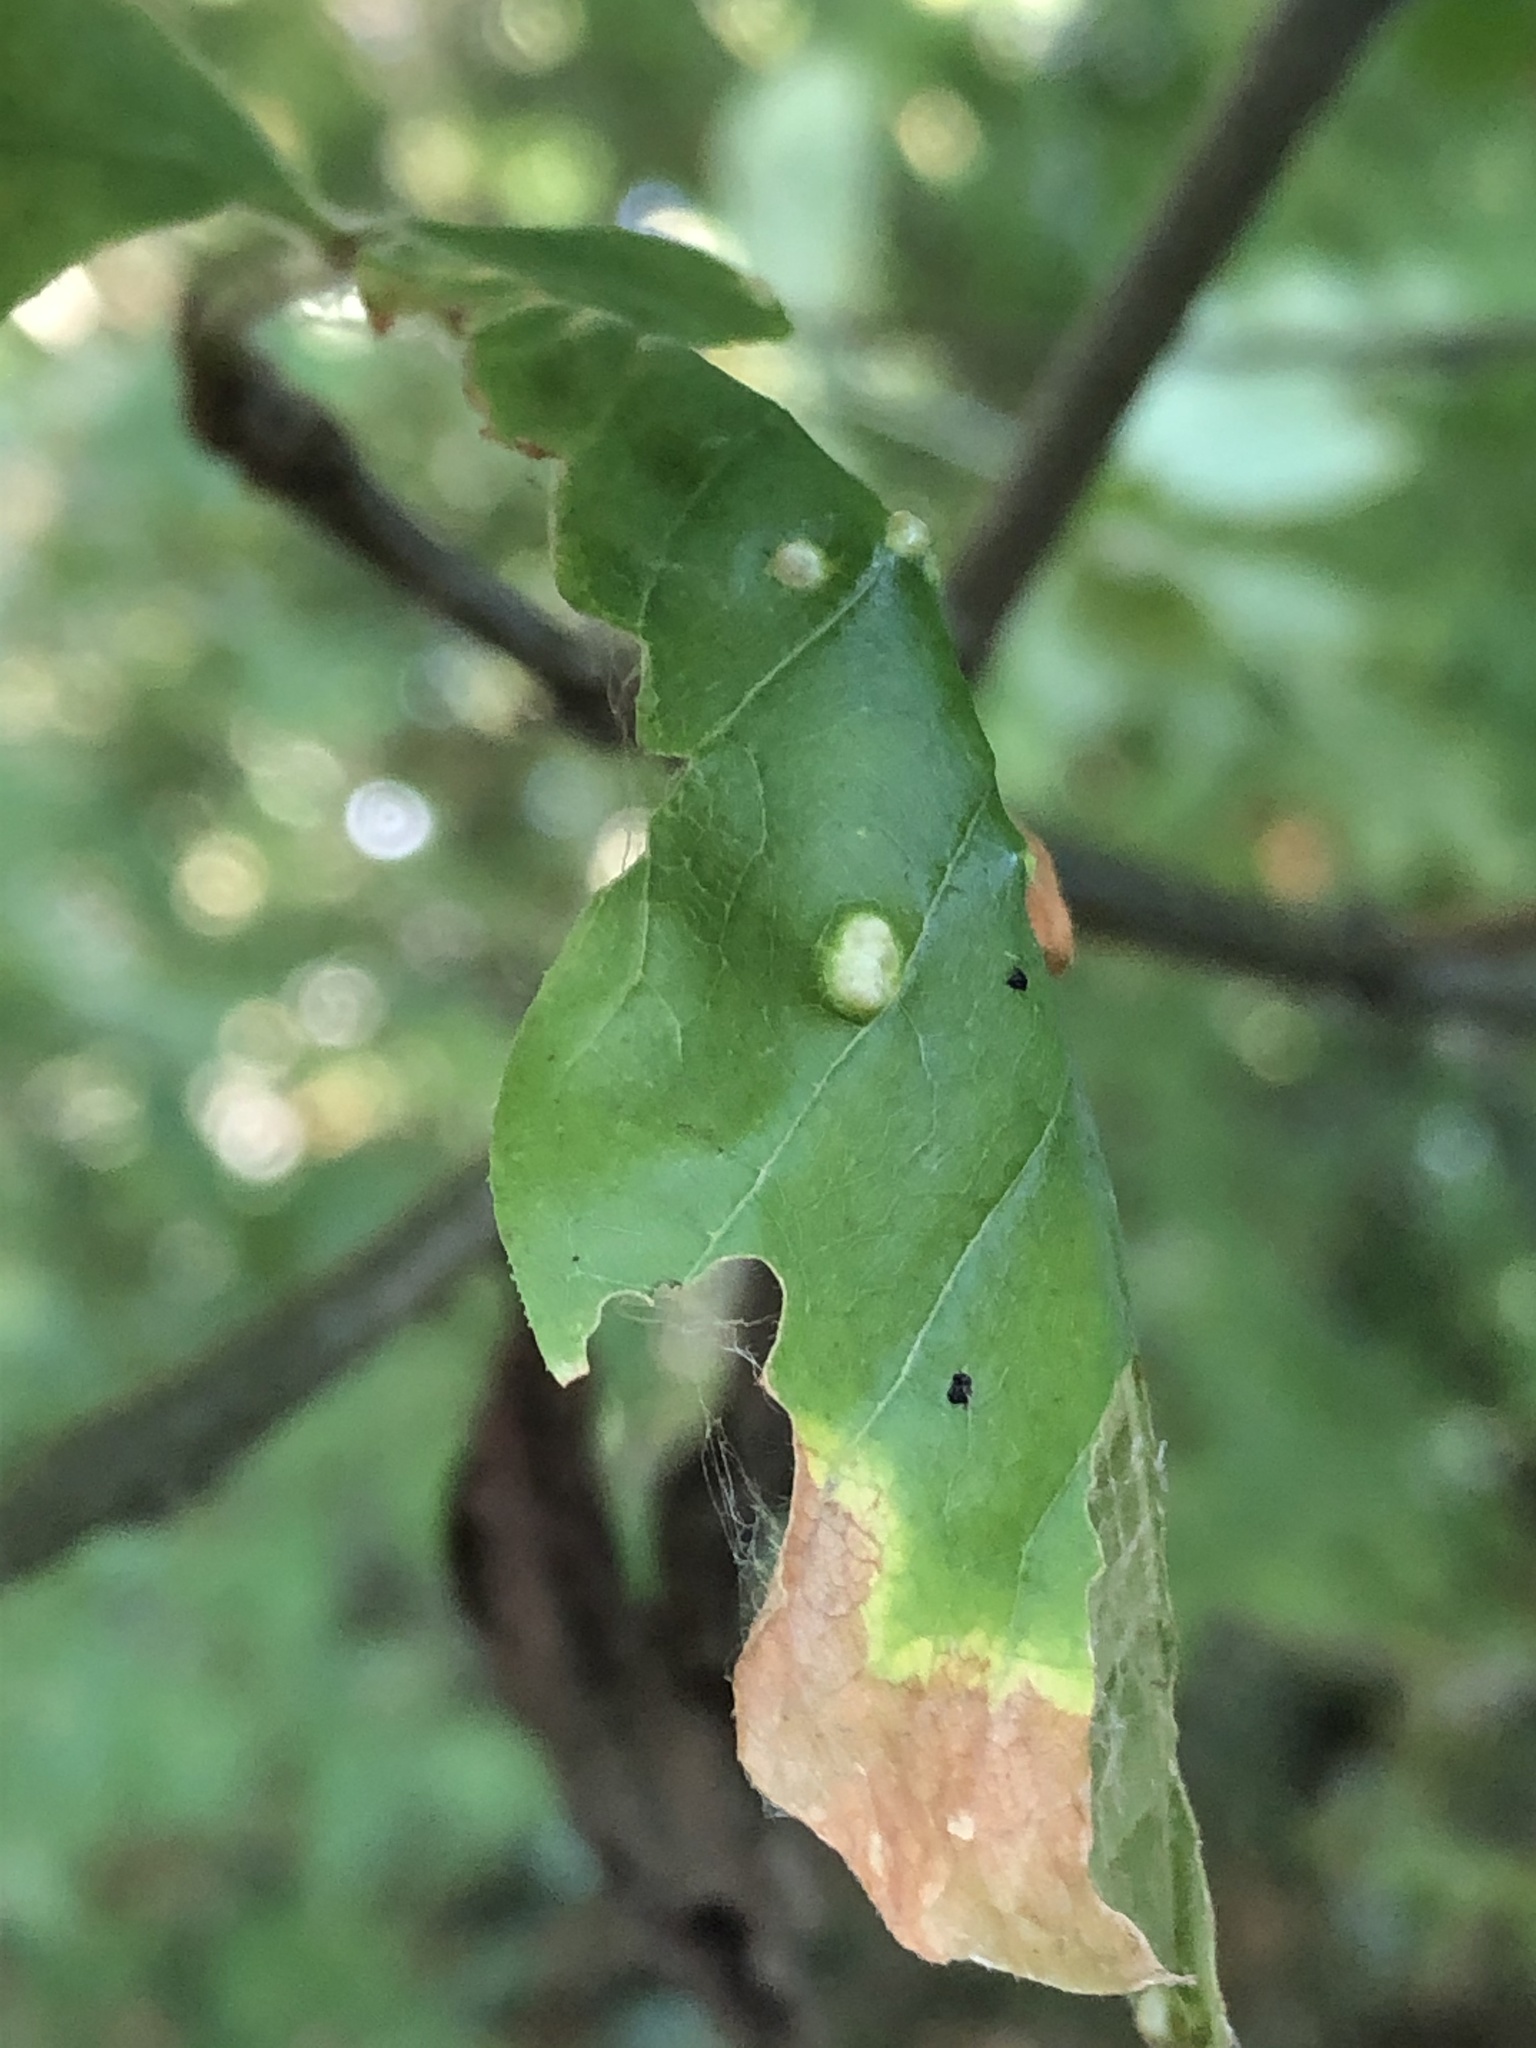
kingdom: Animalia
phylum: Arthropoda
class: Arachnida
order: Trombidiformes
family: Eriophyidae
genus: Aceria
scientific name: Aceria fraxinicola
